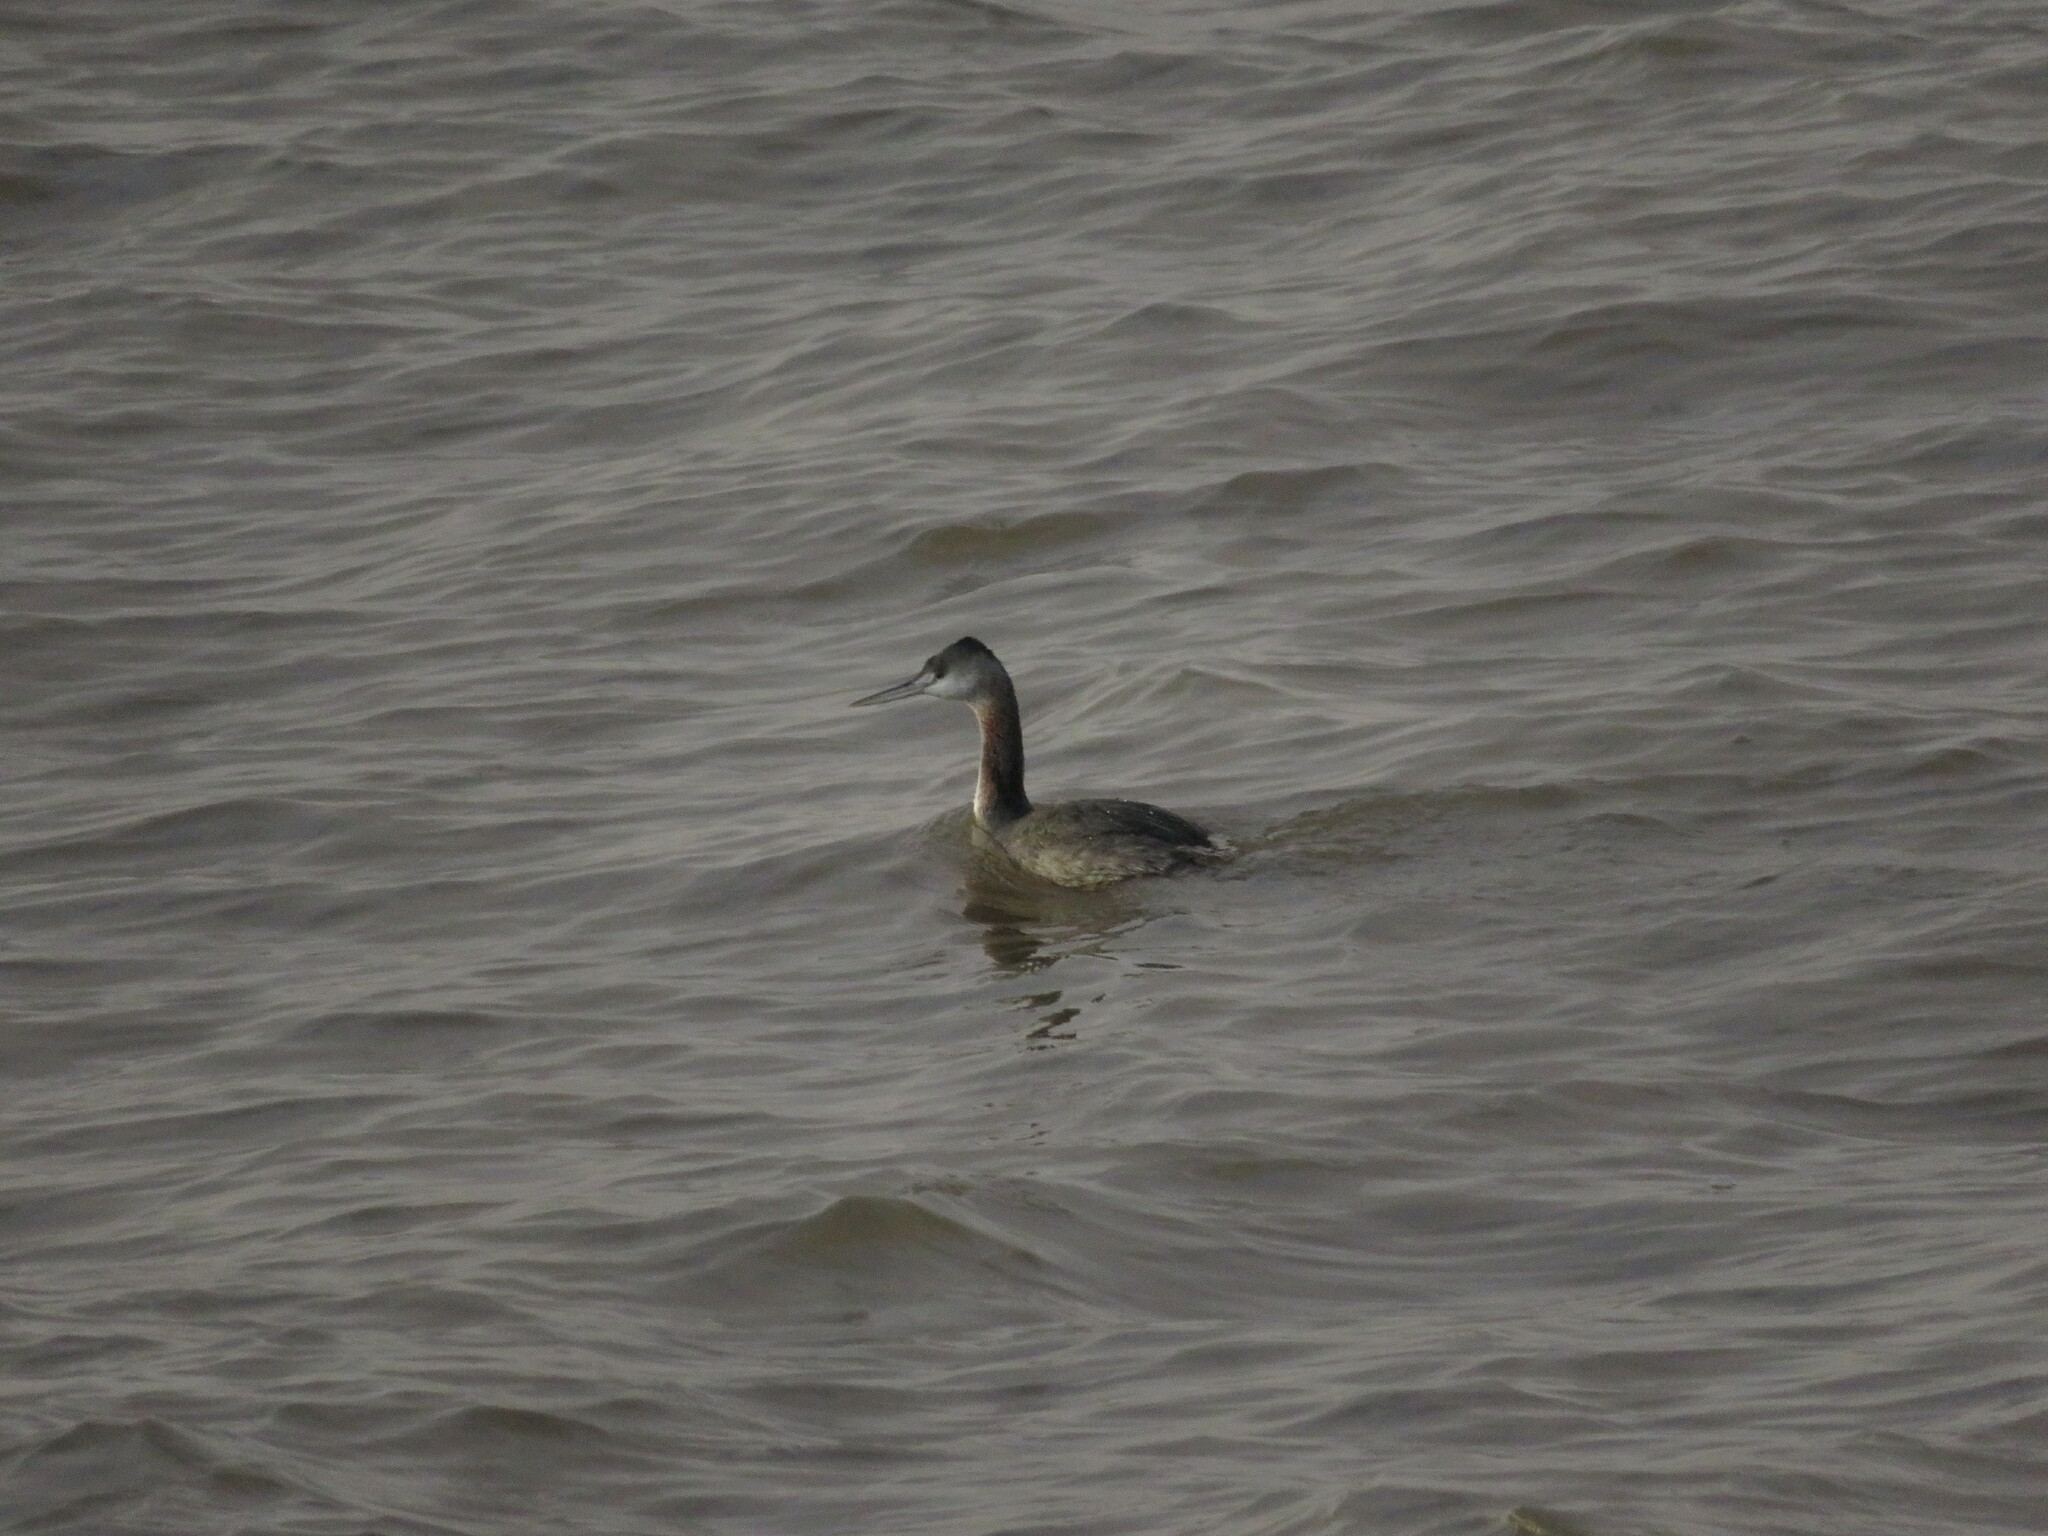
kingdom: Animalia
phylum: Chordata
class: Aves
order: Podicipediformes
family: Podicipedidae
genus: Podiceps
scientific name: Podiceps major
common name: Great grebe
